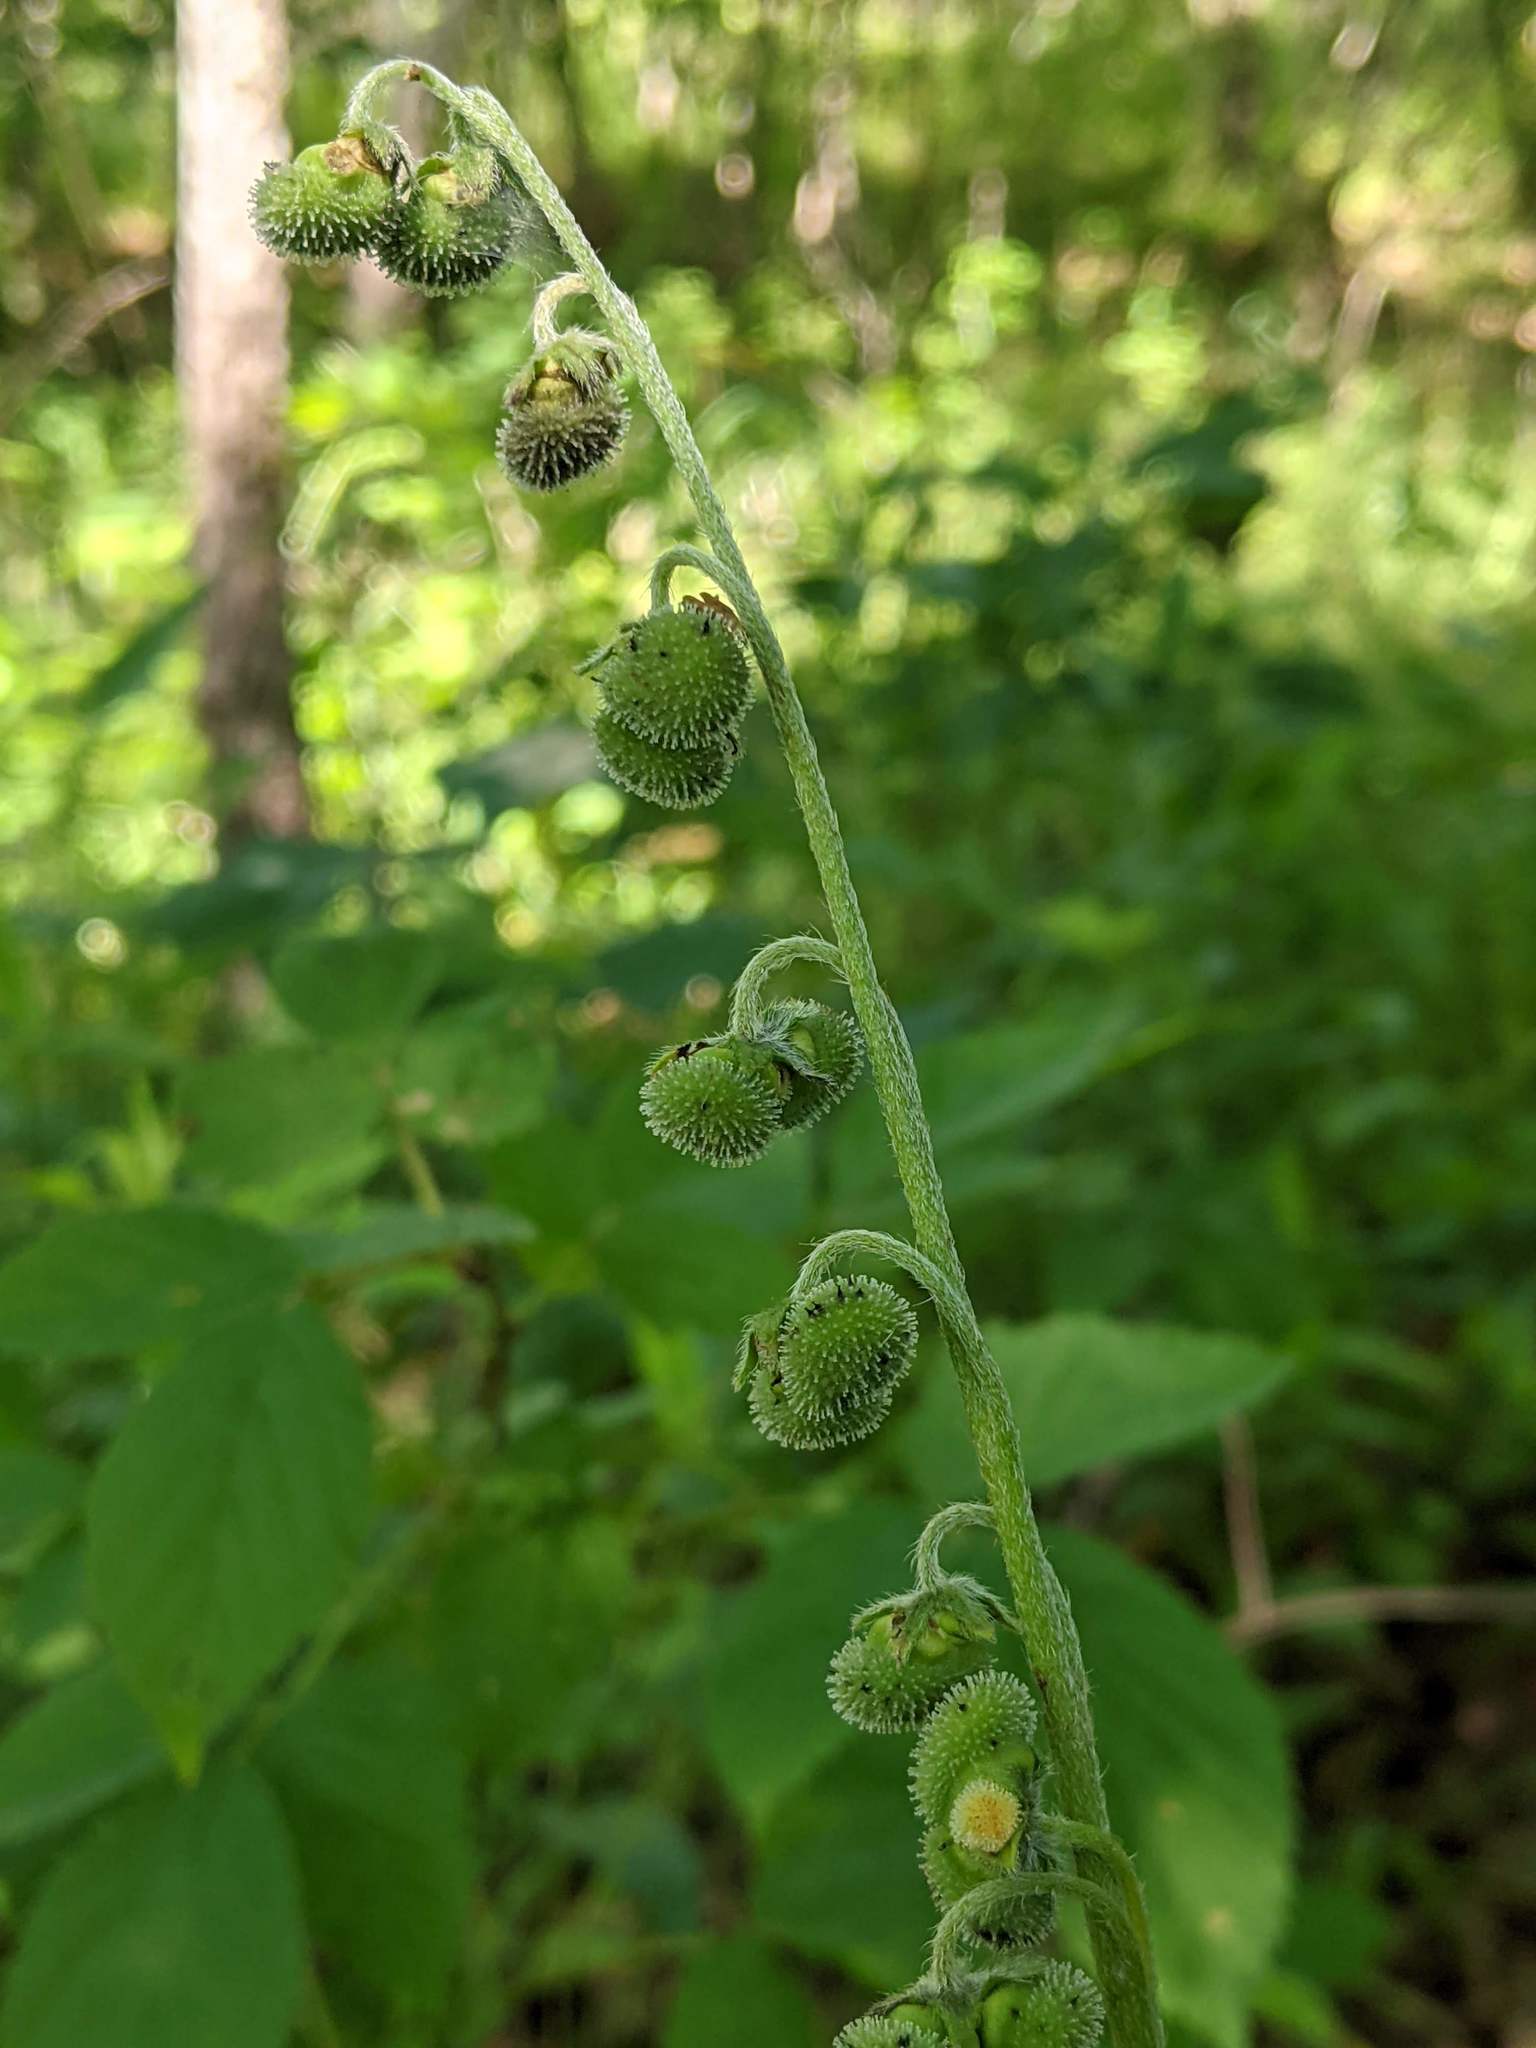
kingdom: Plantae
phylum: Tracheophyta
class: Magnoliopsida
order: Boraginales
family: Boraginaceae
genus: Andersonglossum
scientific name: Andersonglossum virginianum
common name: Wild comfrey
